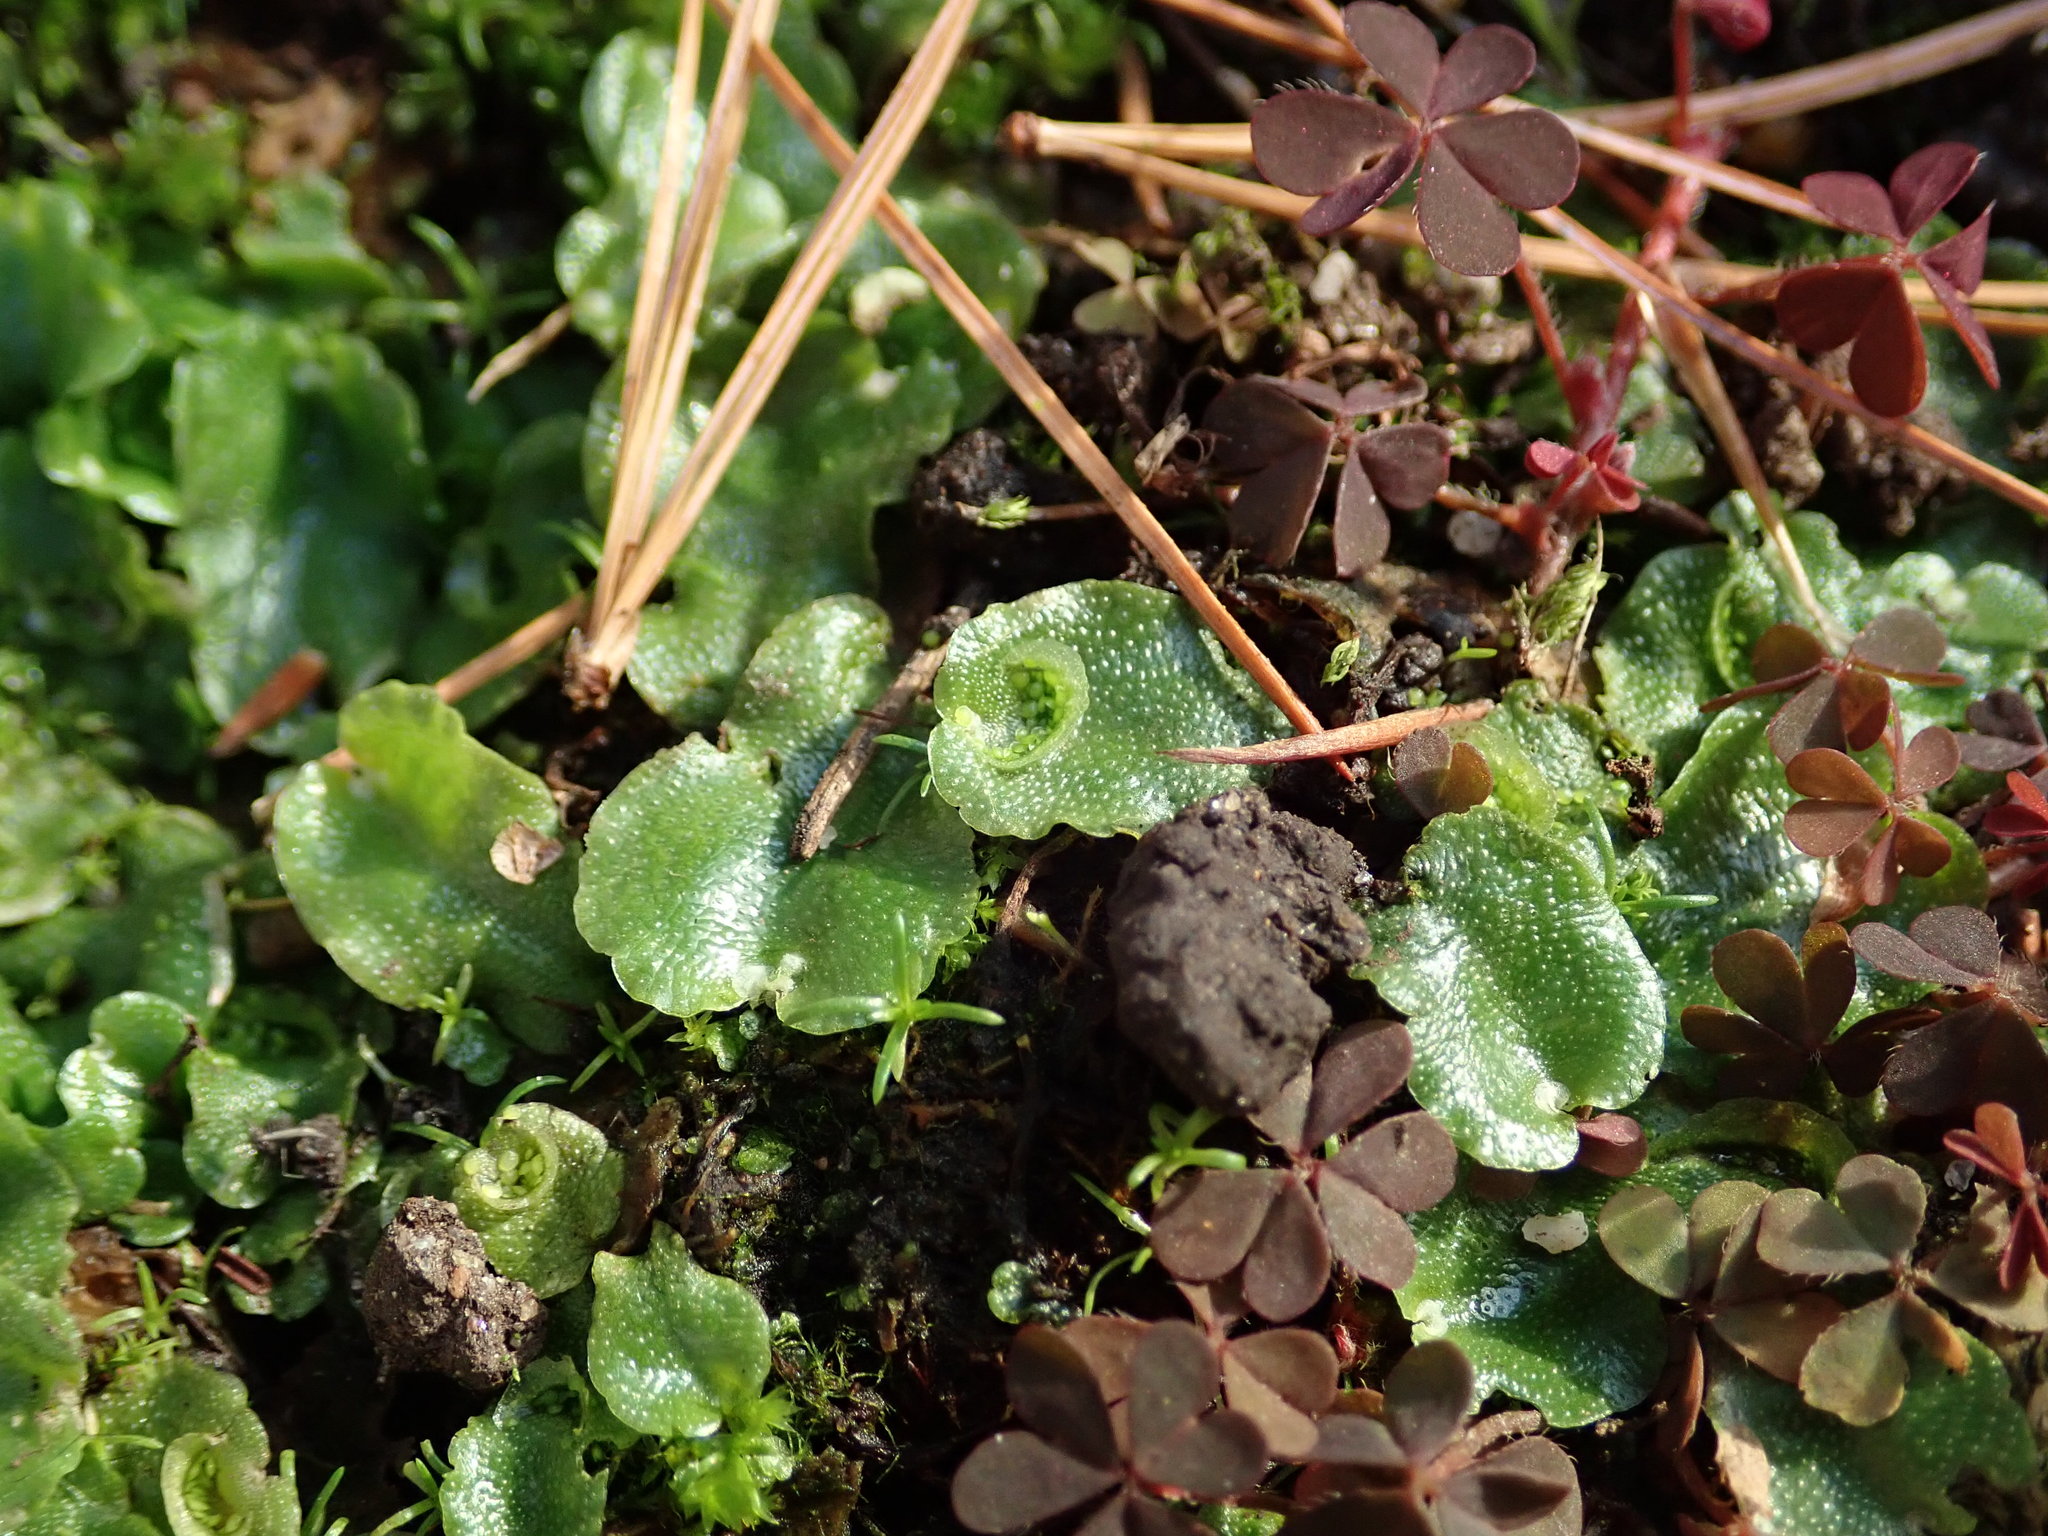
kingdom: Plantae
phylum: Marchantiophyta
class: Marchantiopsida
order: Lunulariales
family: Lunulariaceae
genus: Lunularia
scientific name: Lunularia cruciata
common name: Crescent-cup liverwort
